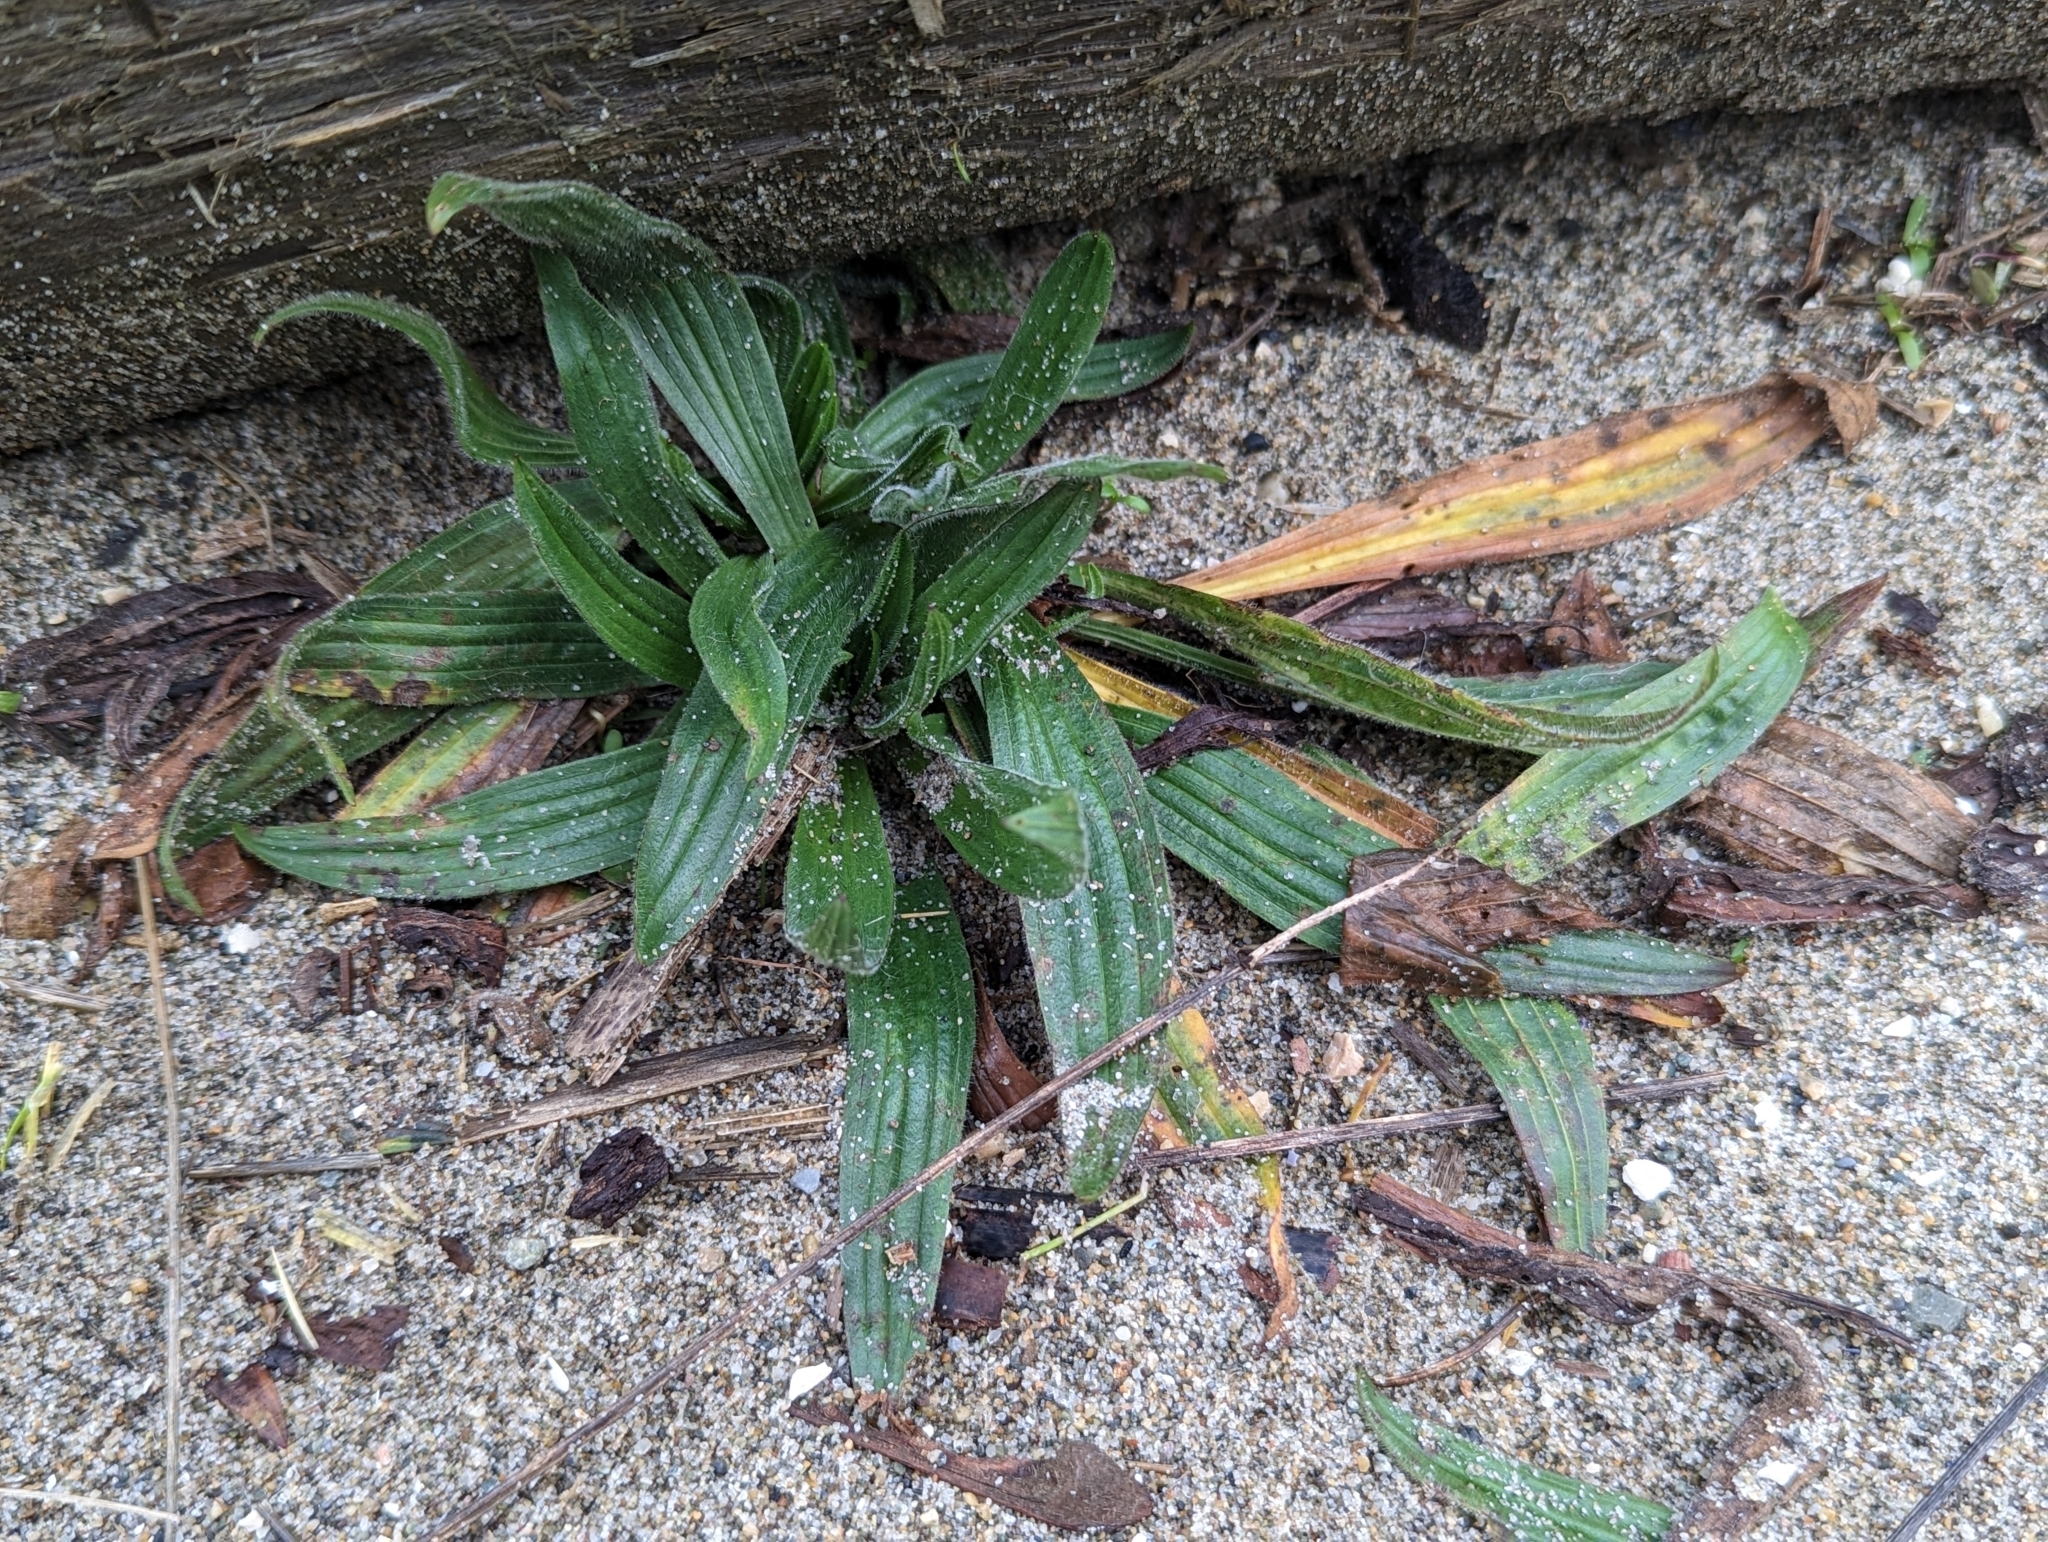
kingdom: Plantae
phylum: Tracheophyta
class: Magnoliopsida
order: Lamiales
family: Plantaginaceae
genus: Plantago
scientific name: Plantago lanceolata
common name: Ribwort plantain
